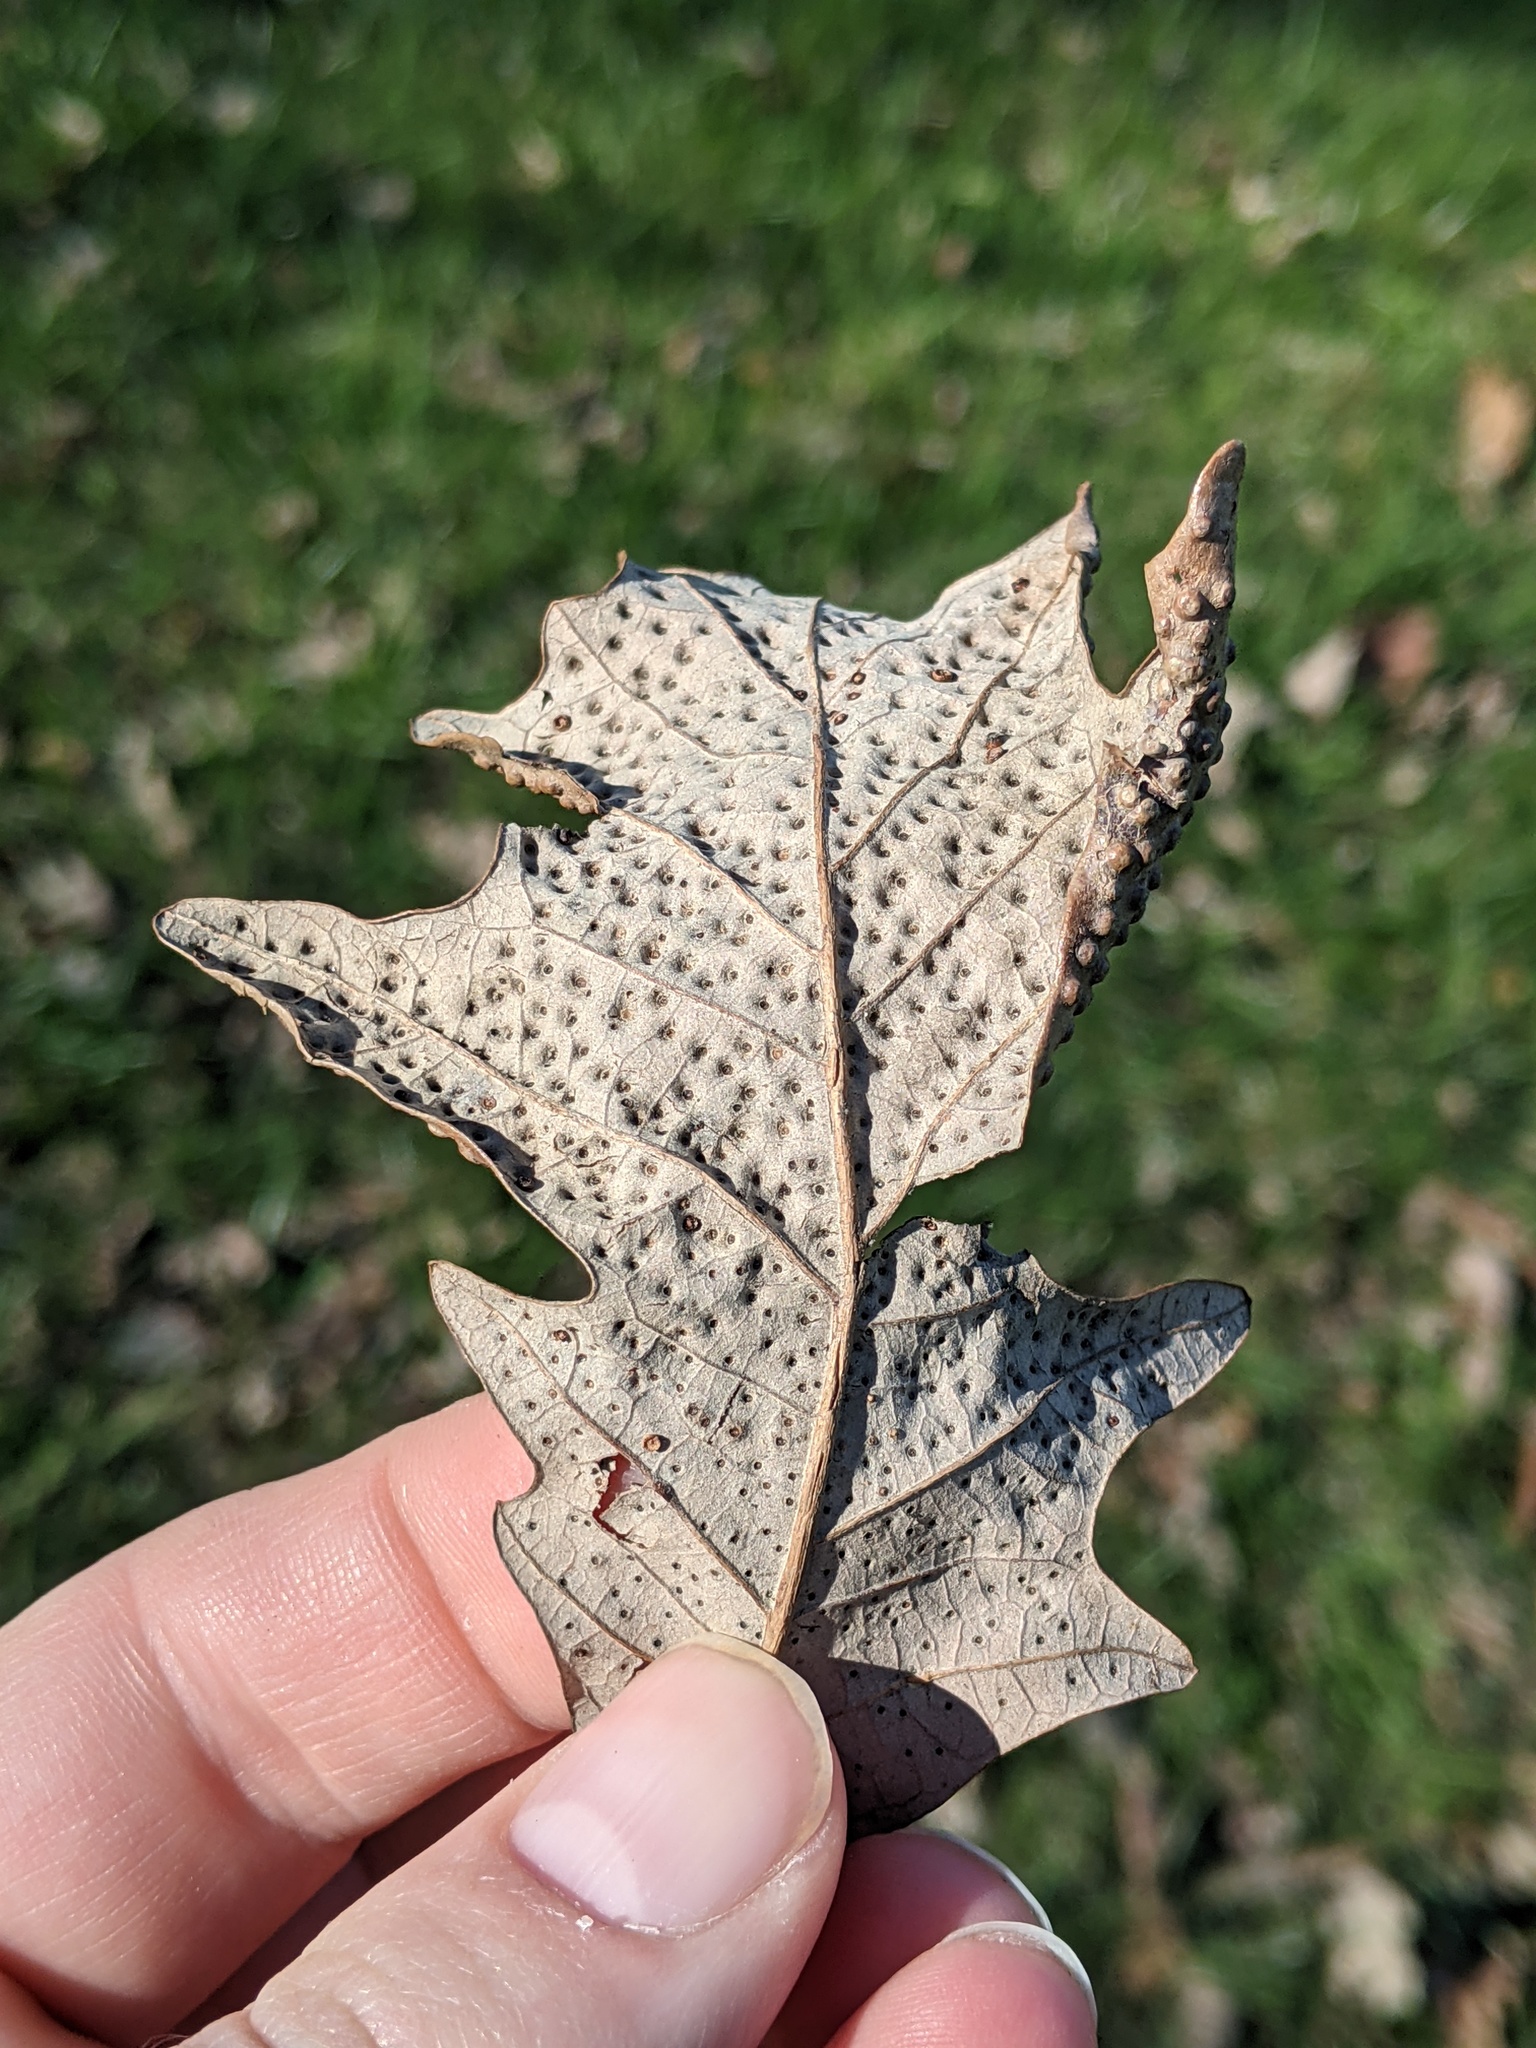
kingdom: Animalia
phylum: Arthropoda
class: Insecta
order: Hymenoptera
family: Cynipidae
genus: Neuroterus
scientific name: Neuroterus saltarius
